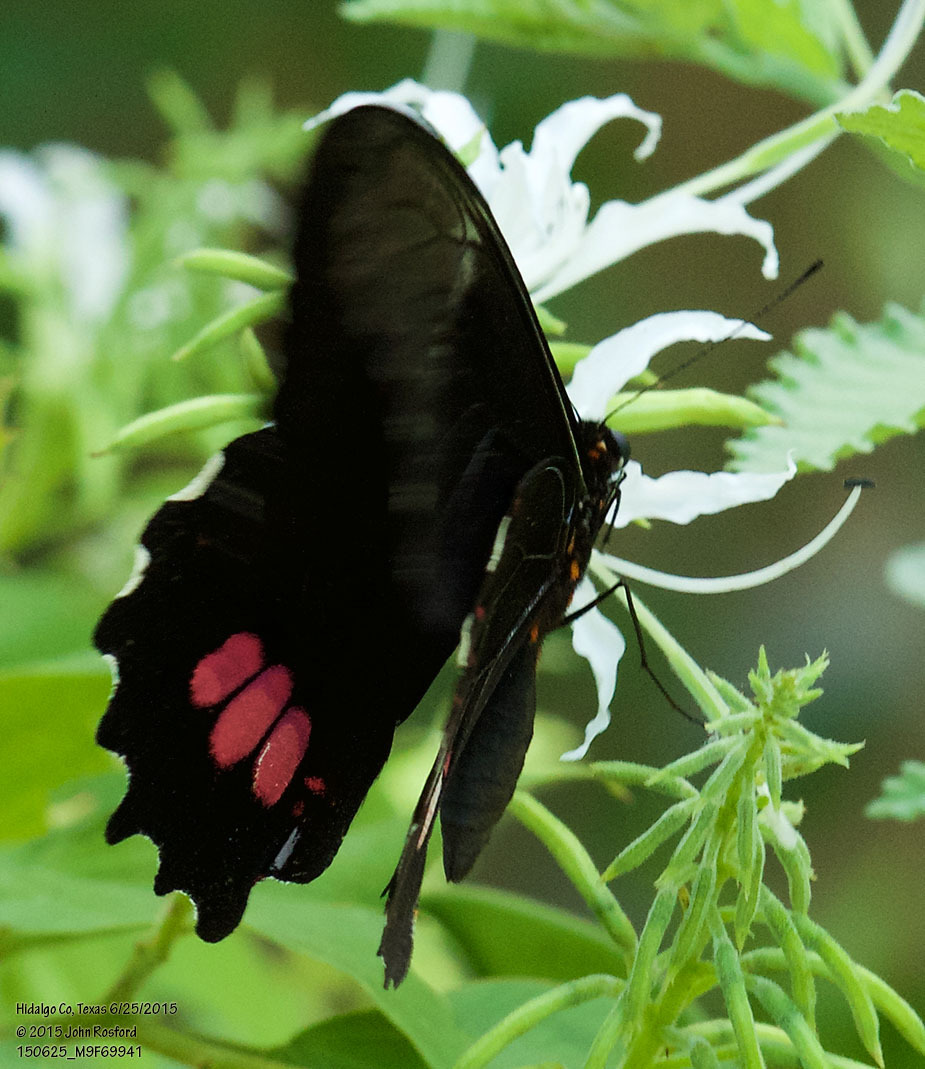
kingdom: Animalia
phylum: Arthropoda
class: Insecta
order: Lepidoptera
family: Papilionidae
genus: Papilio
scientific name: Papilio anchisiades
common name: Idaes swallowtail
